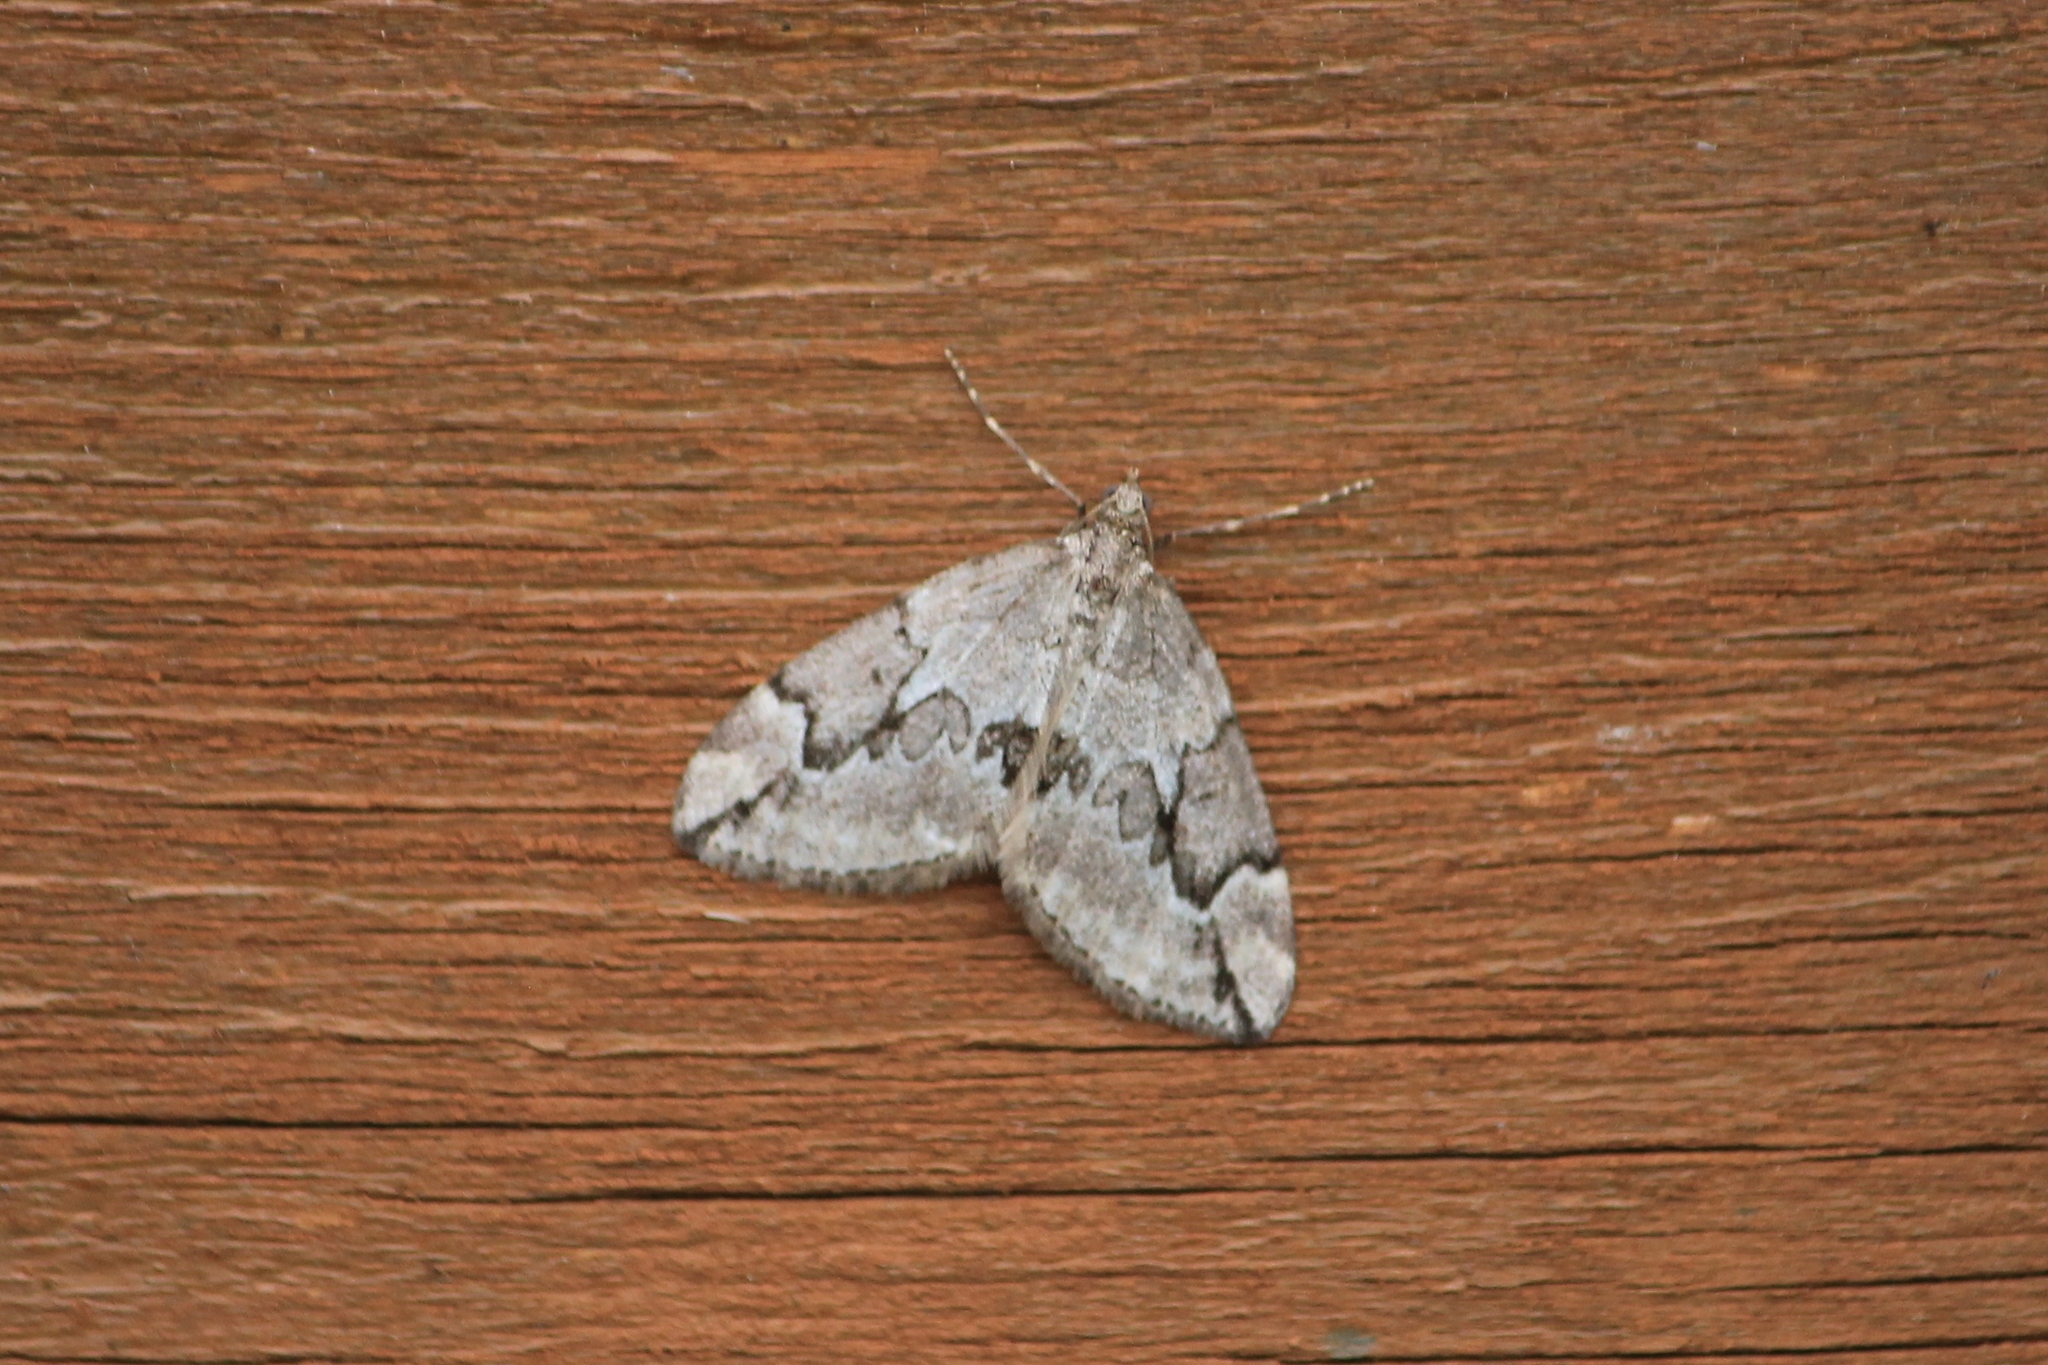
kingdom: Animalia
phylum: Arthropoda
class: Insecta
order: Lepidoptera
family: Geometridae
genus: Thera
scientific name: Thera juniperata
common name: Juniper carpet
